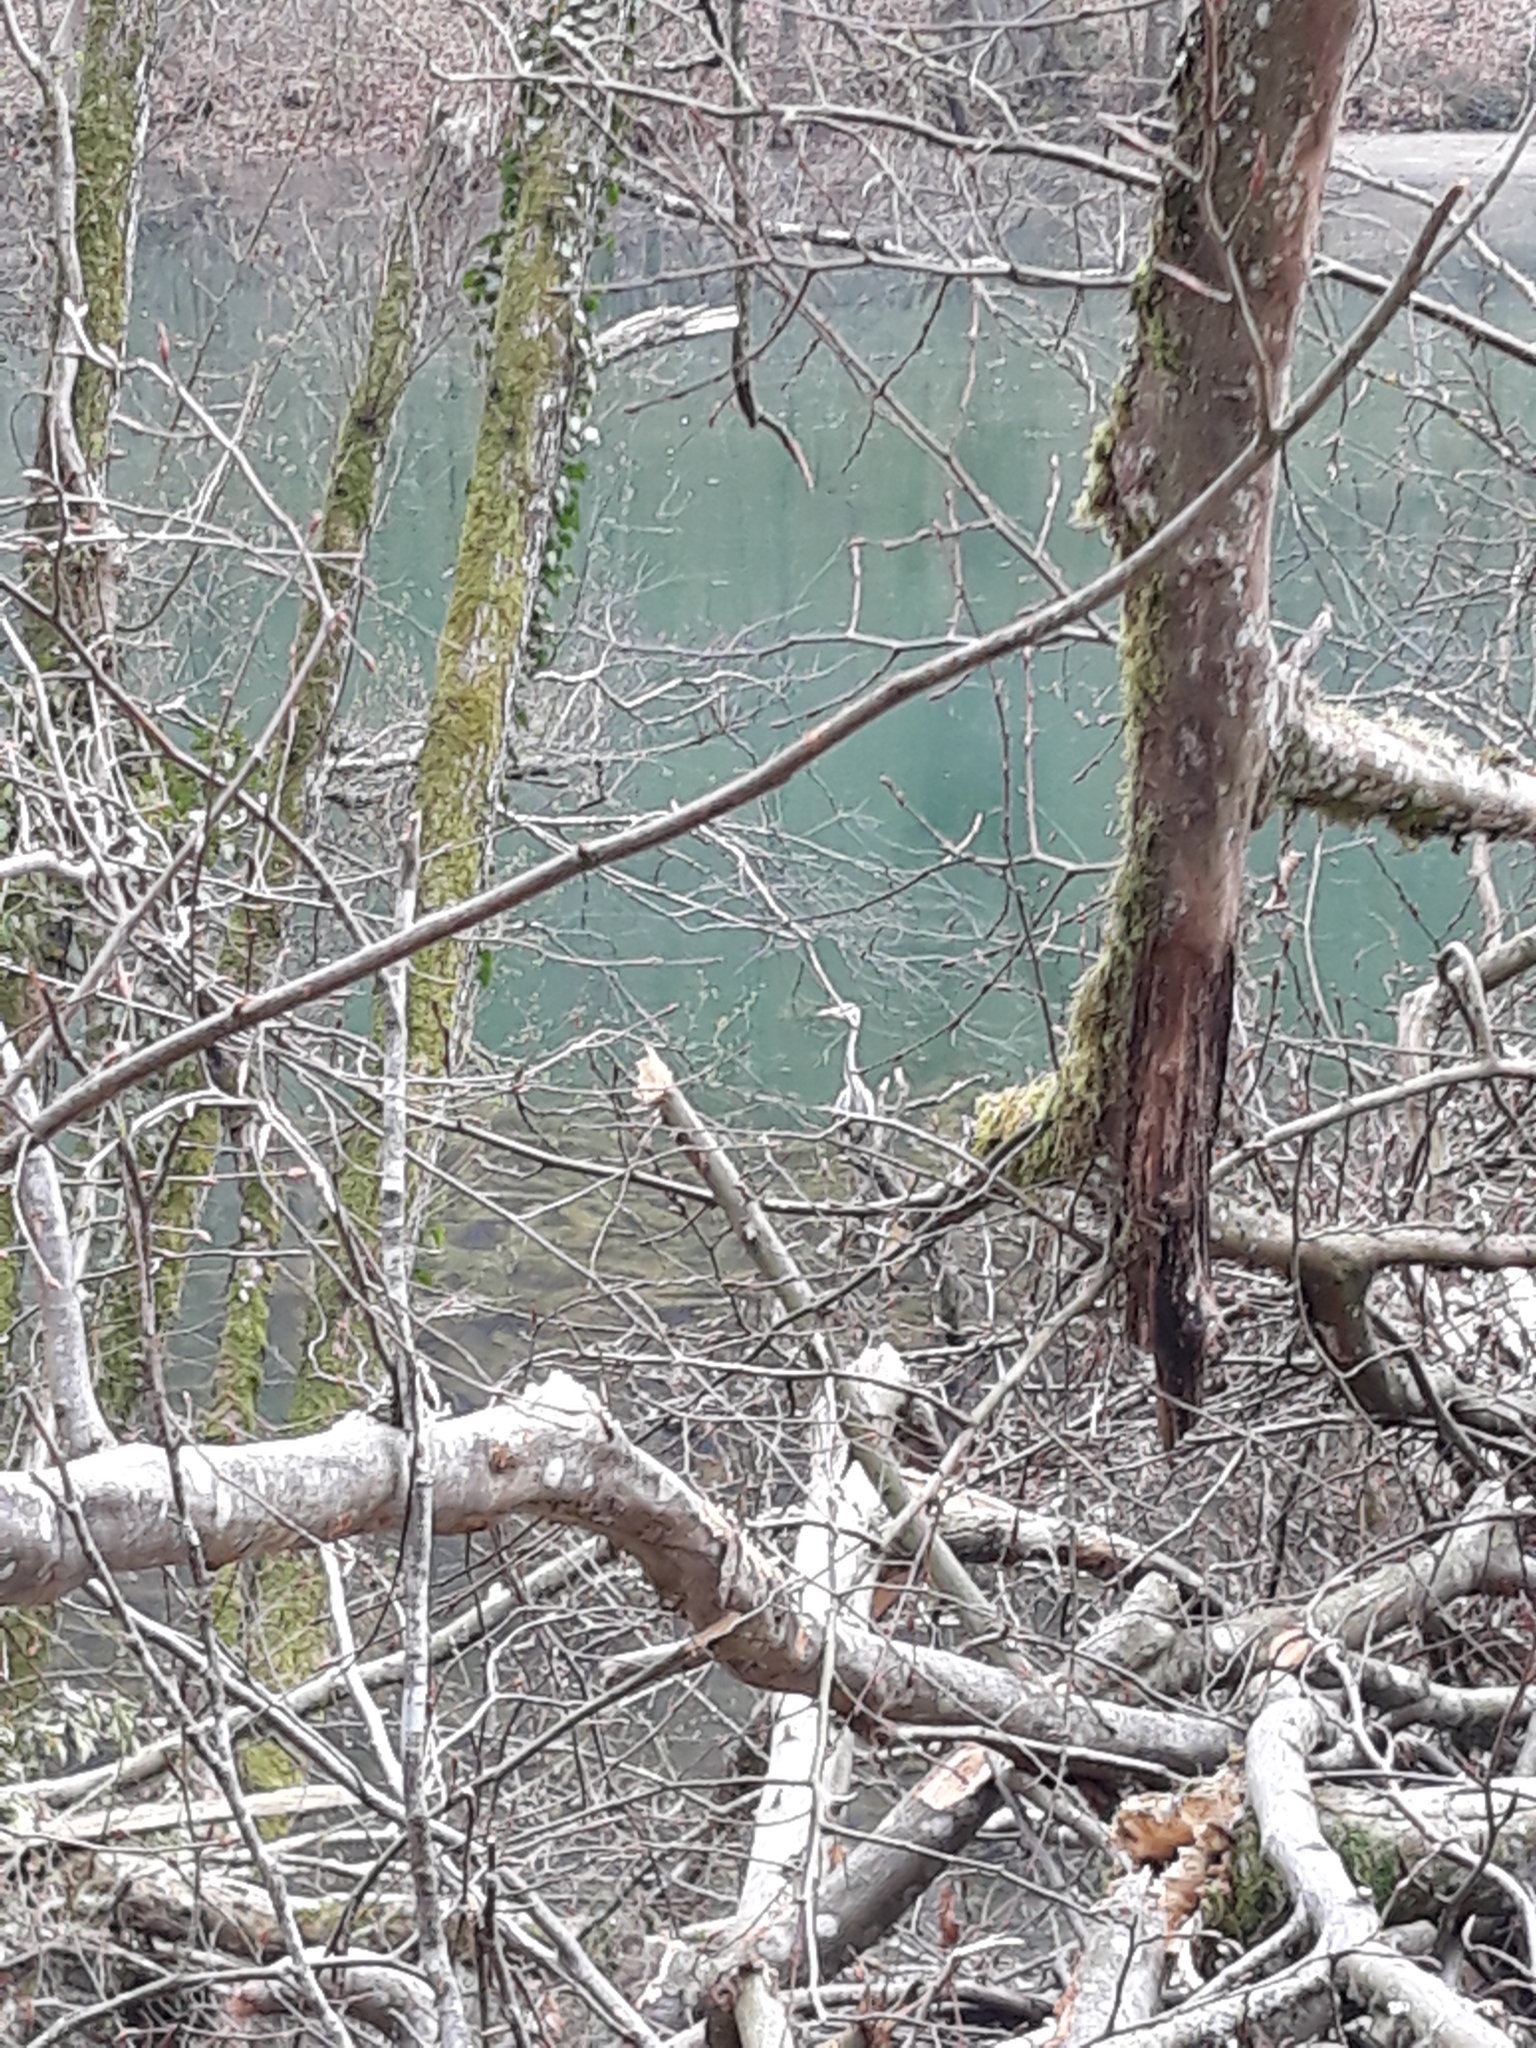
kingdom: Animalia
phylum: Chordata
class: Aves
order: Pelecaniformes
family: Ardeidae
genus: Ardea
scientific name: Ardea cinerea
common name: Grey heron
